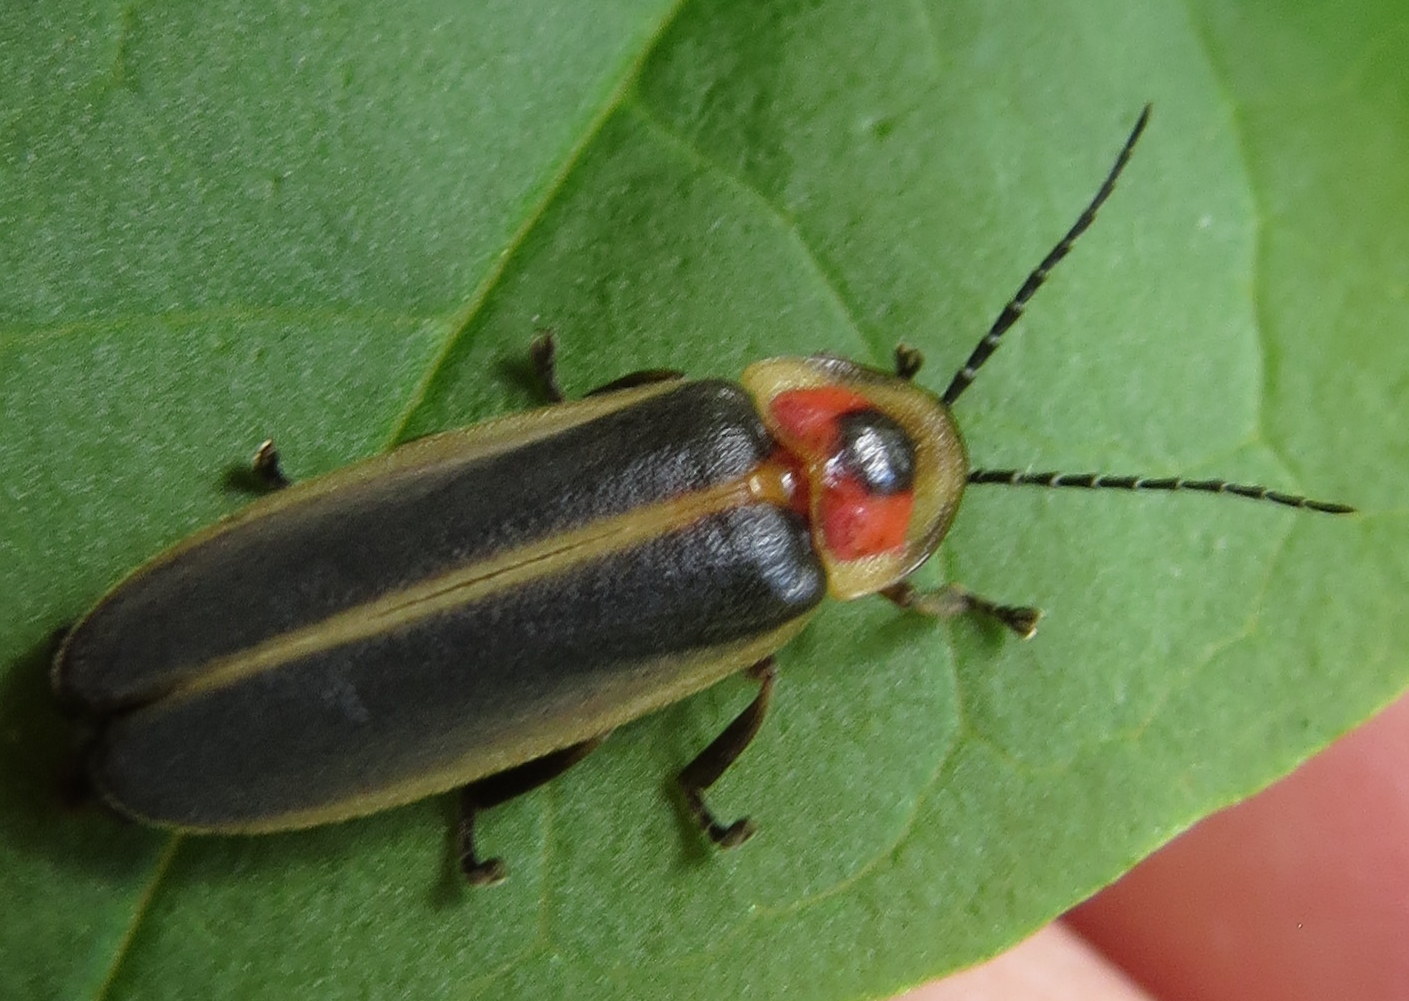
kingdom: Animalia
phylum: Arthropoda
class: Insecta
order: Coleoptera
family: Lampyridae
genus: Photinus
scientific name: Photinus pyralis
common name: Big dipper firefly
